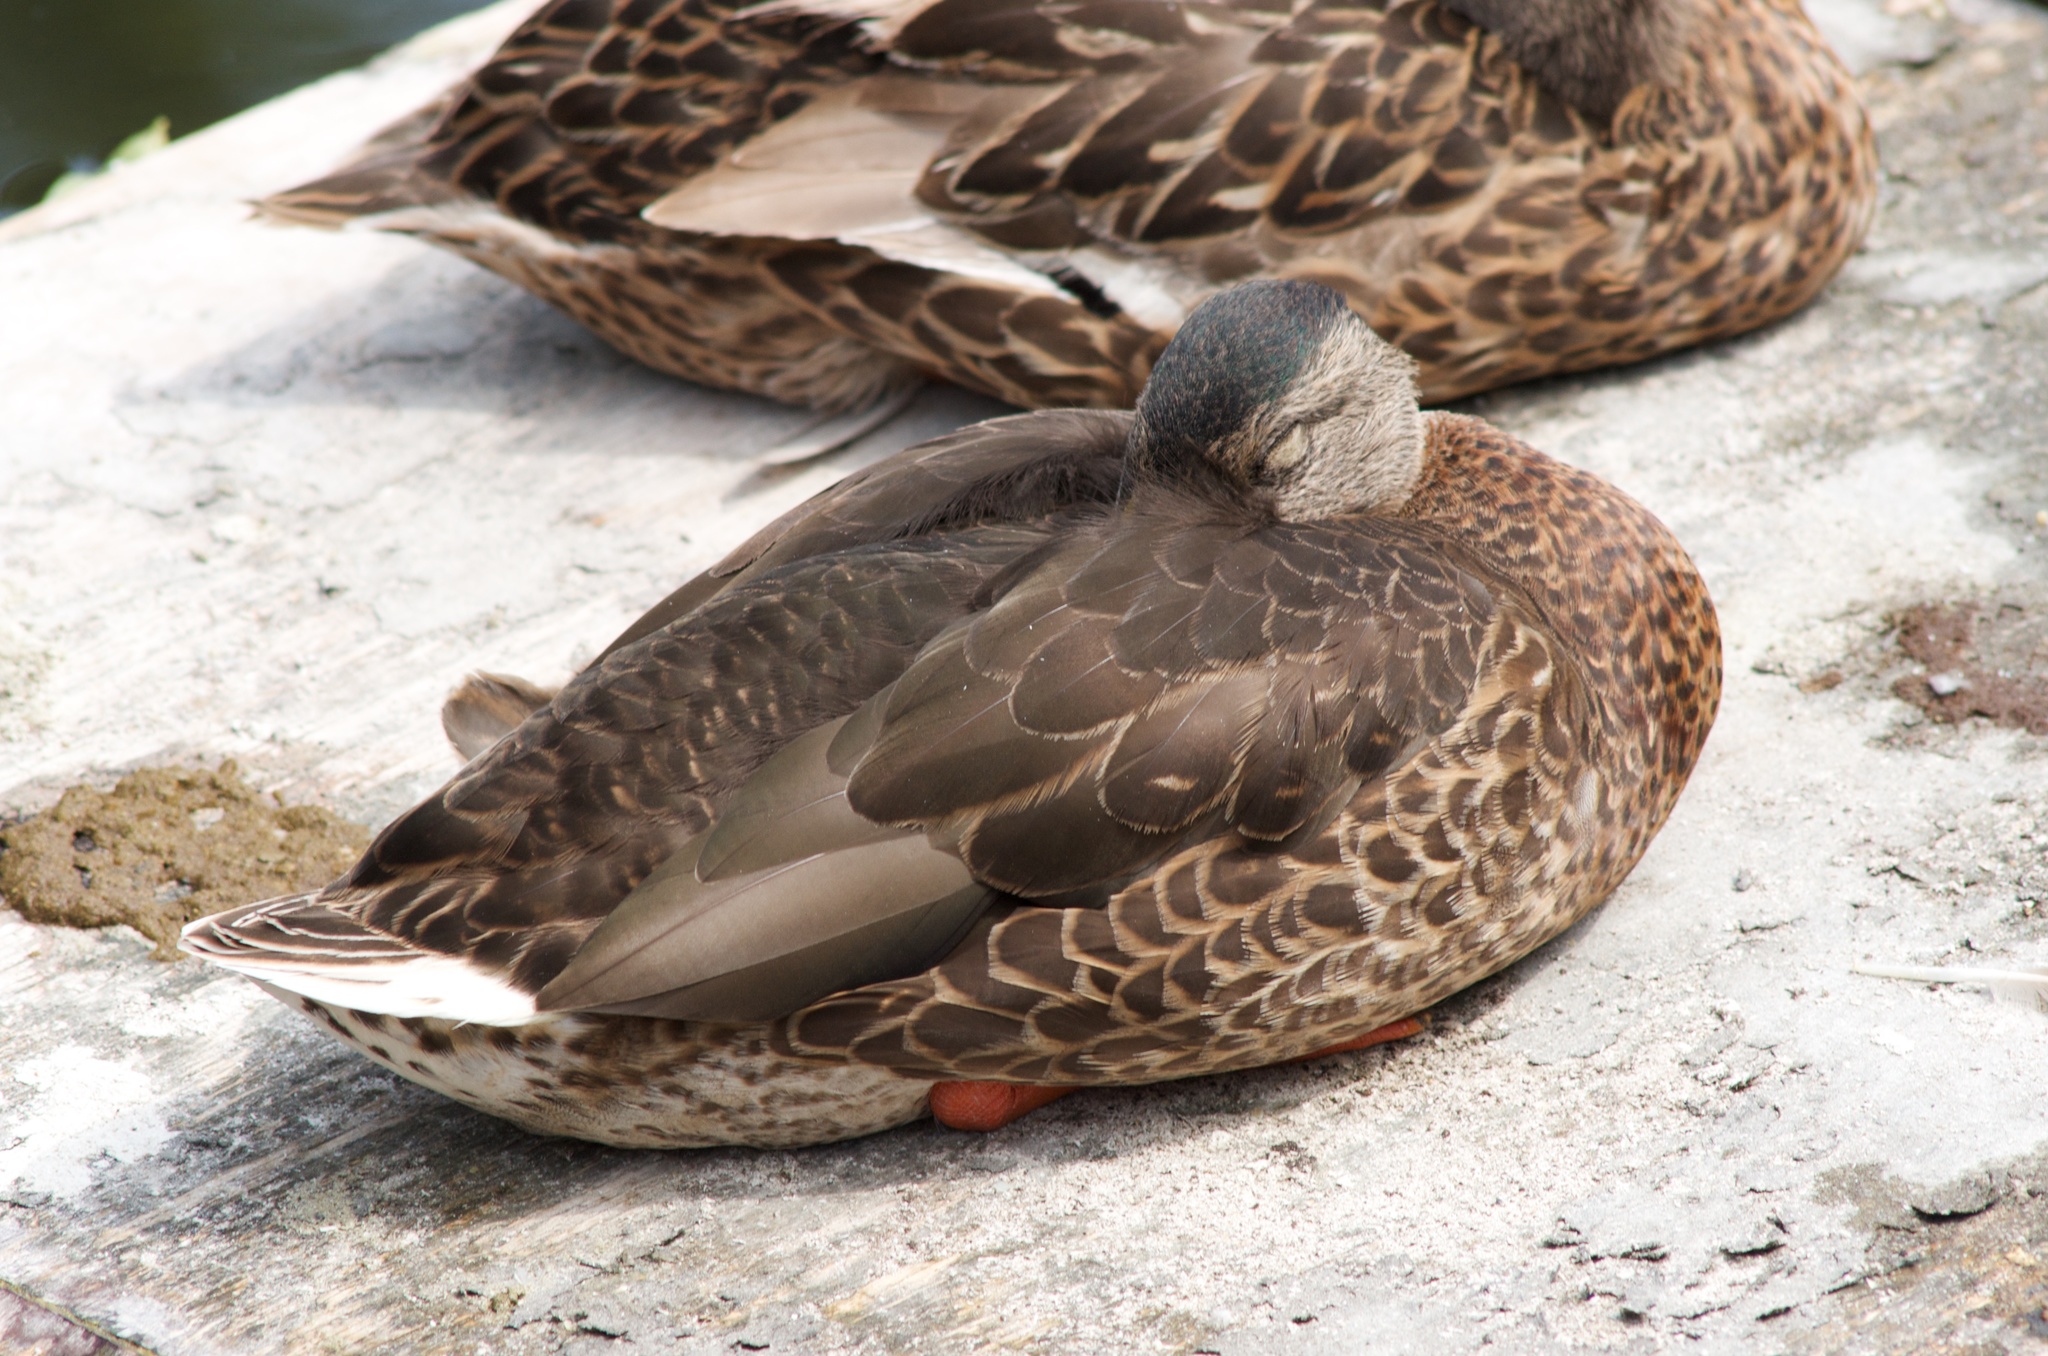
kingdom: Animalia
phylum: Chordata
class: Aves
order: Anseriformes
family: Anatidae
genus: Anas
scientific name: Anas platyrhynchos
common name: Mallard
